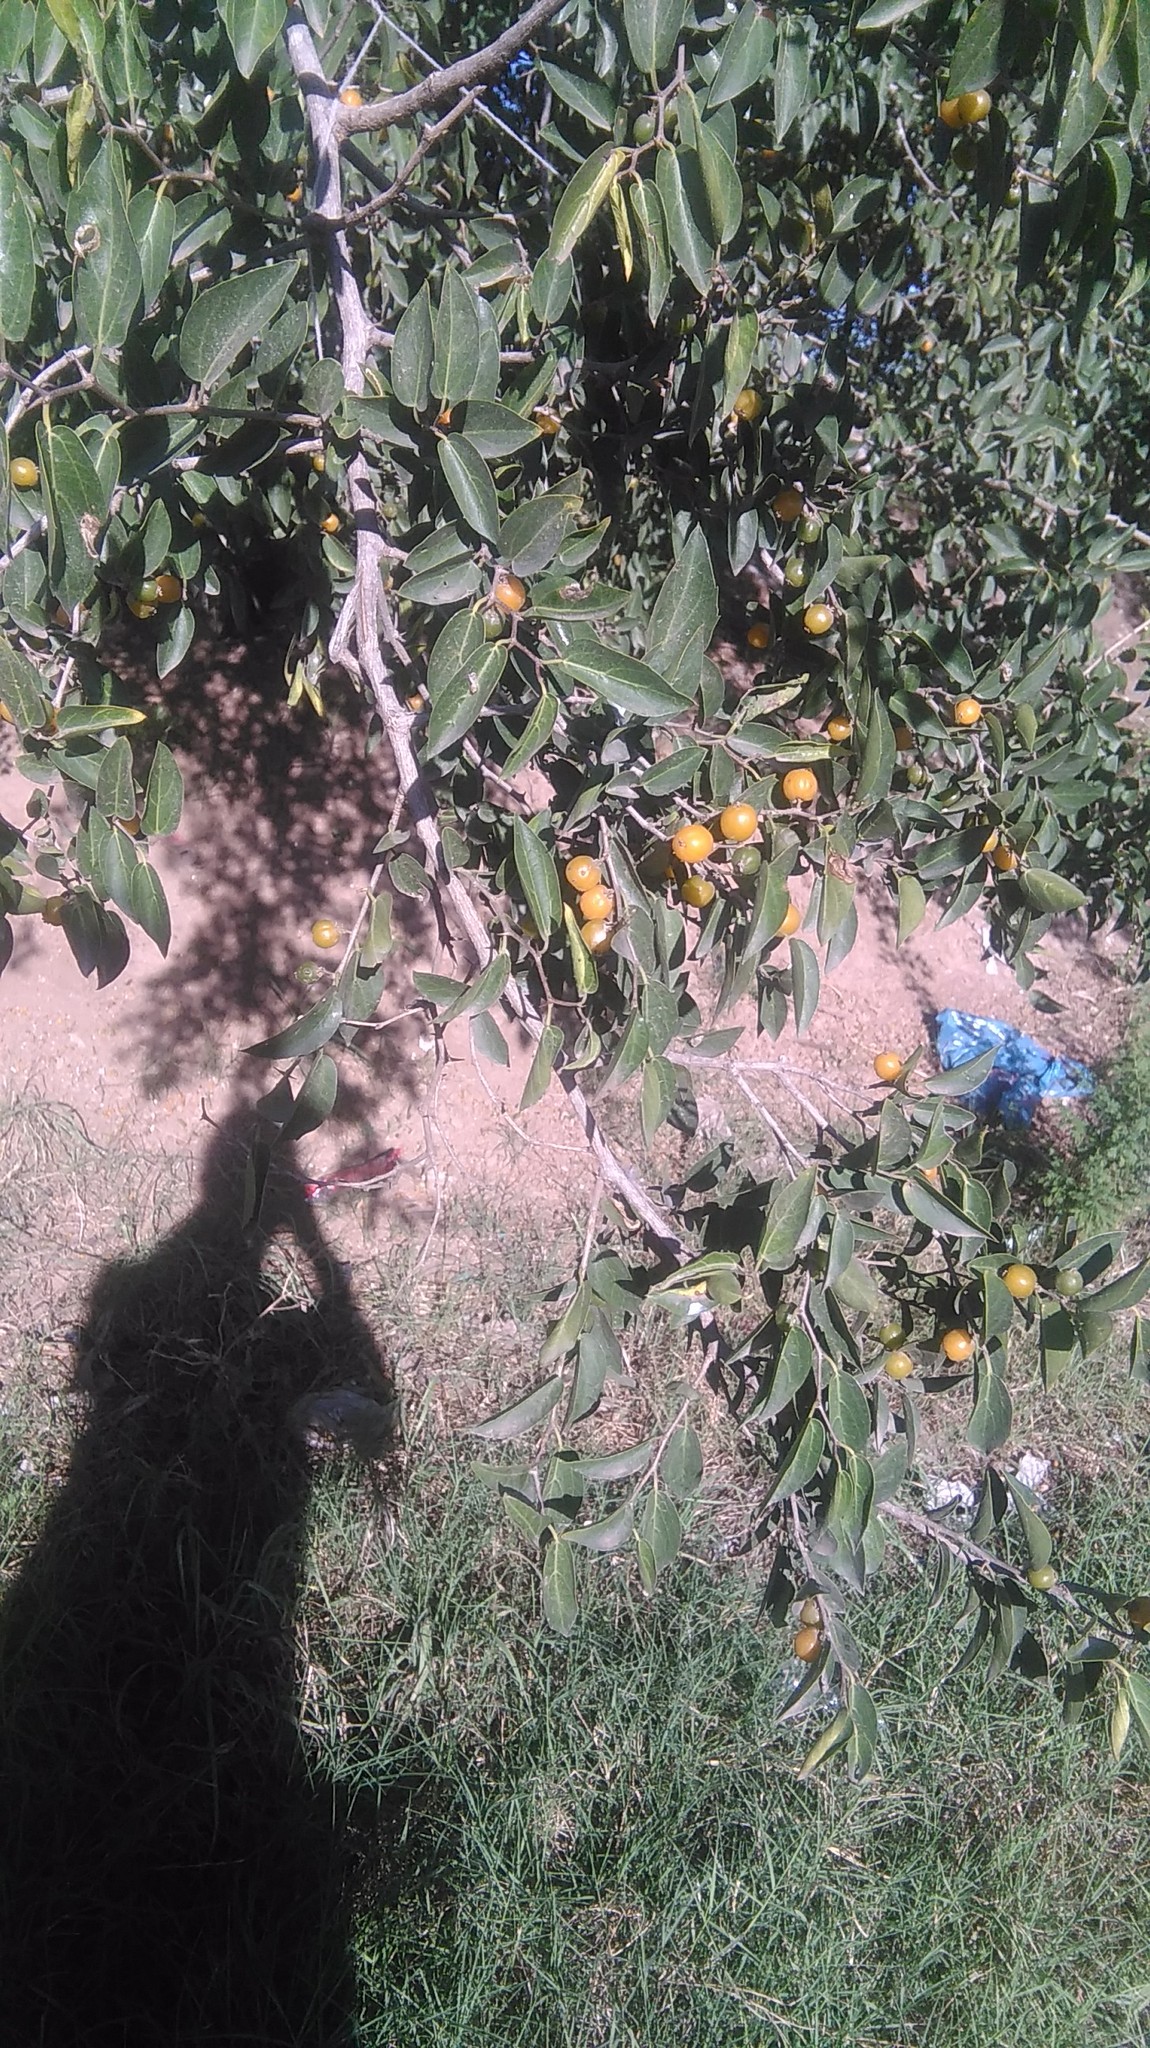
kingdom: Plantae
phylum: Tracheophyta
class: Magnoliopsida
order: Rosales
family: Cannabaceae
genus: Celtis
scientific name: Celtis tala
